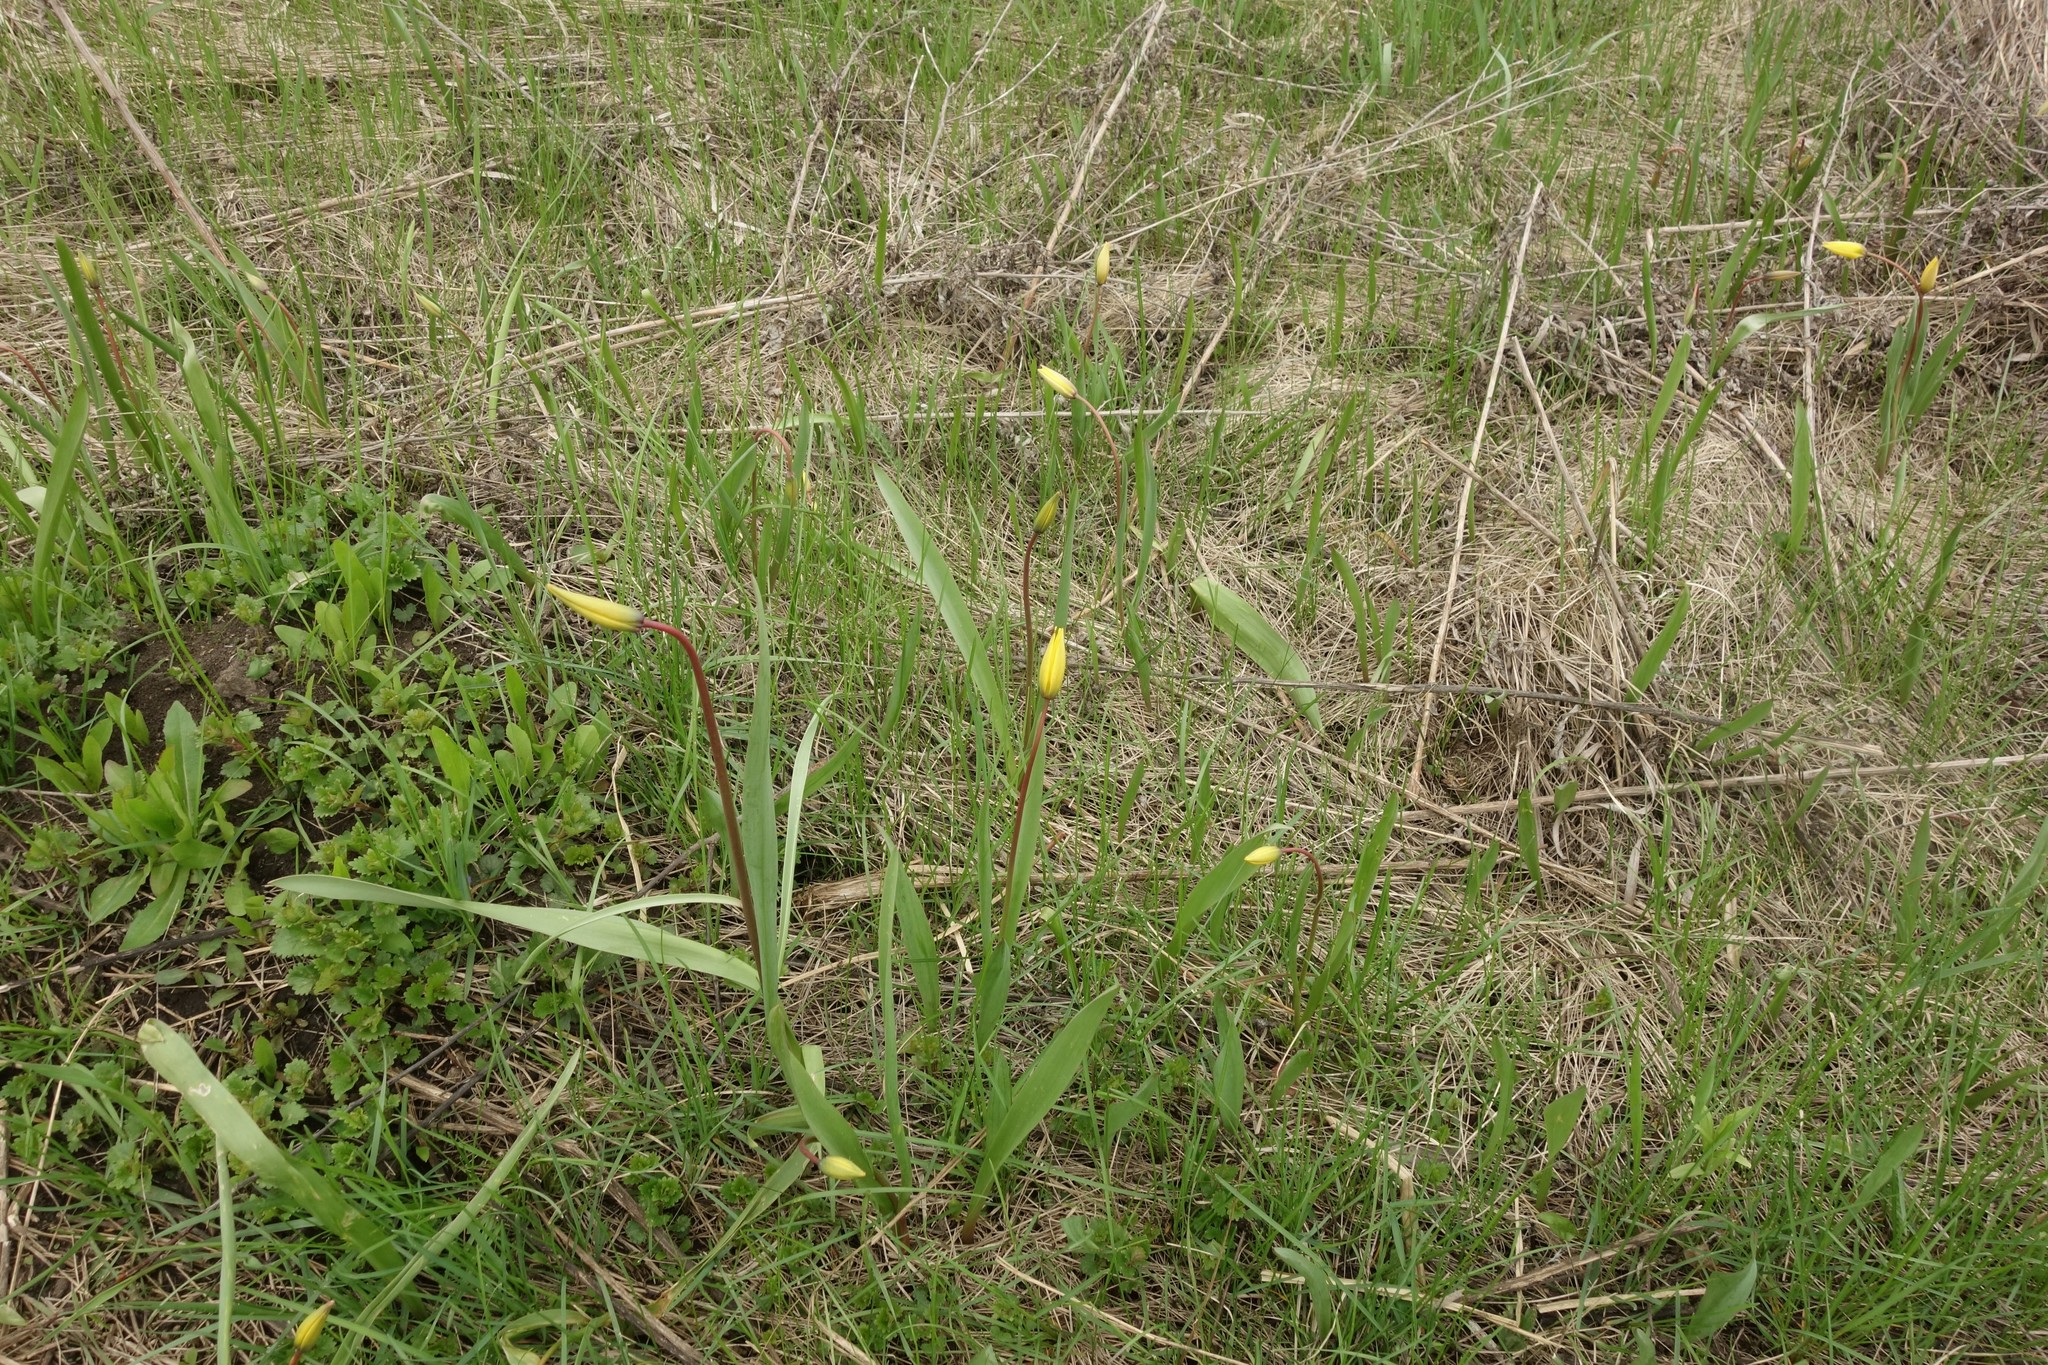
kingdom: Plantae
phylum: Tracheophyta
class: Liliopsida
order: Liliales
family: Liliaceae
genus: Tulipa
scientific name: Tulipa sylvestris
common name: Wild tulip
